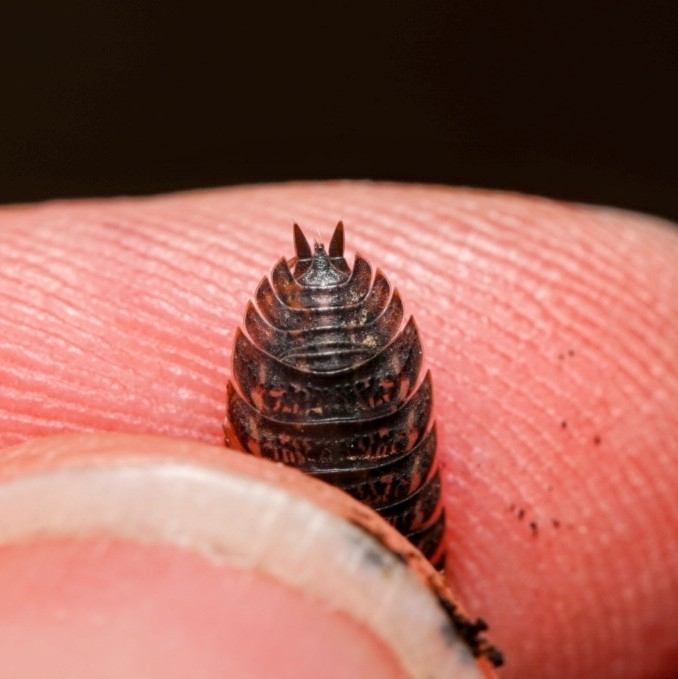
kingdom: Animalia
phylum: Arthropoda
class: Malacostraca
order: Isopoda
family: Trachelipodidae
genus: Trachelipus
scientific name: Trachelipus rathkii
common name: Isopod
